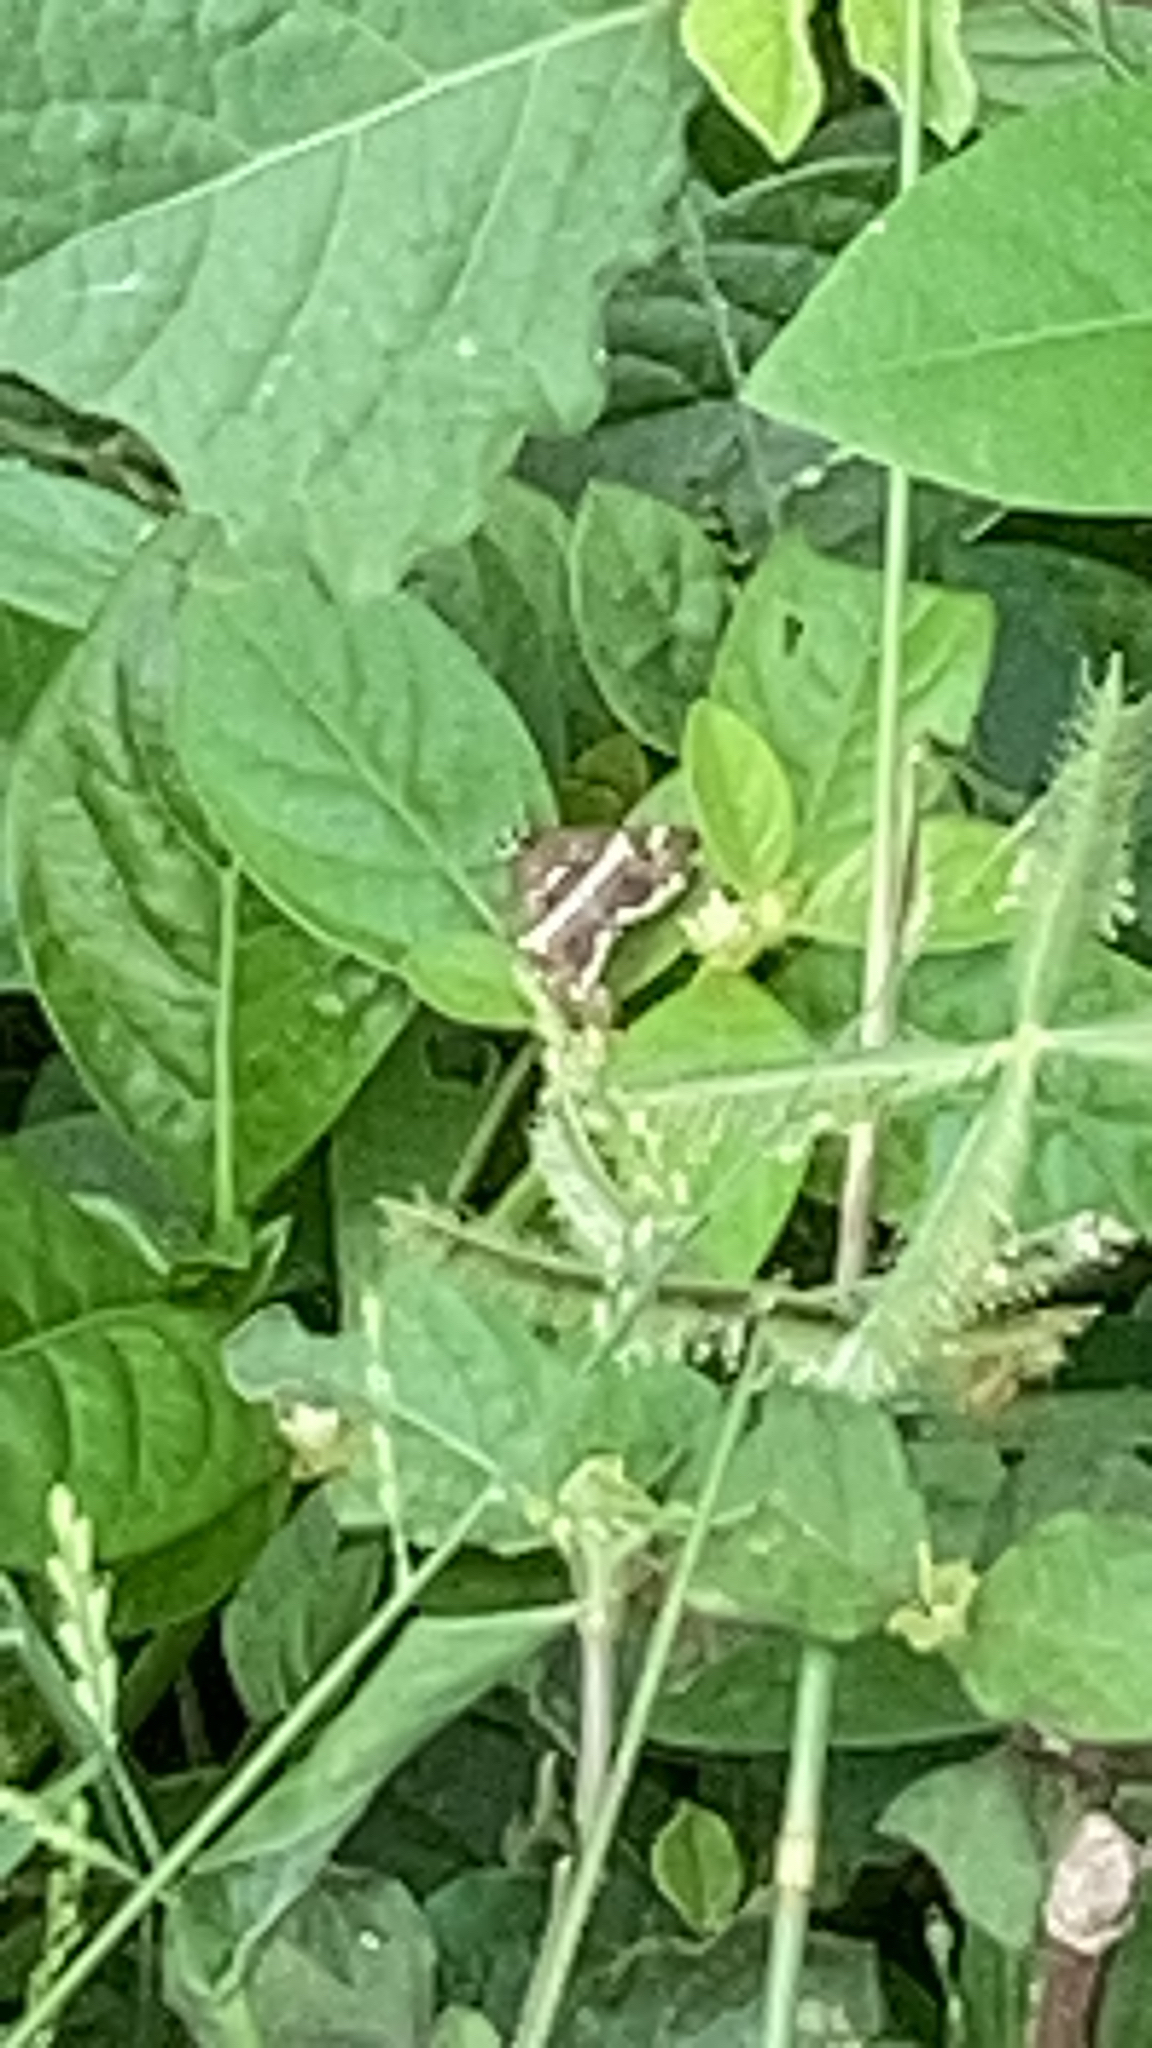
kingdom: Animalia
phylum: Arthropoda
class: Insecta
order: Lepidoptera
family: Crambidae
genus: Spoladea
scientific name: Spoladea recurvalis
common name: Beet webworm moth
